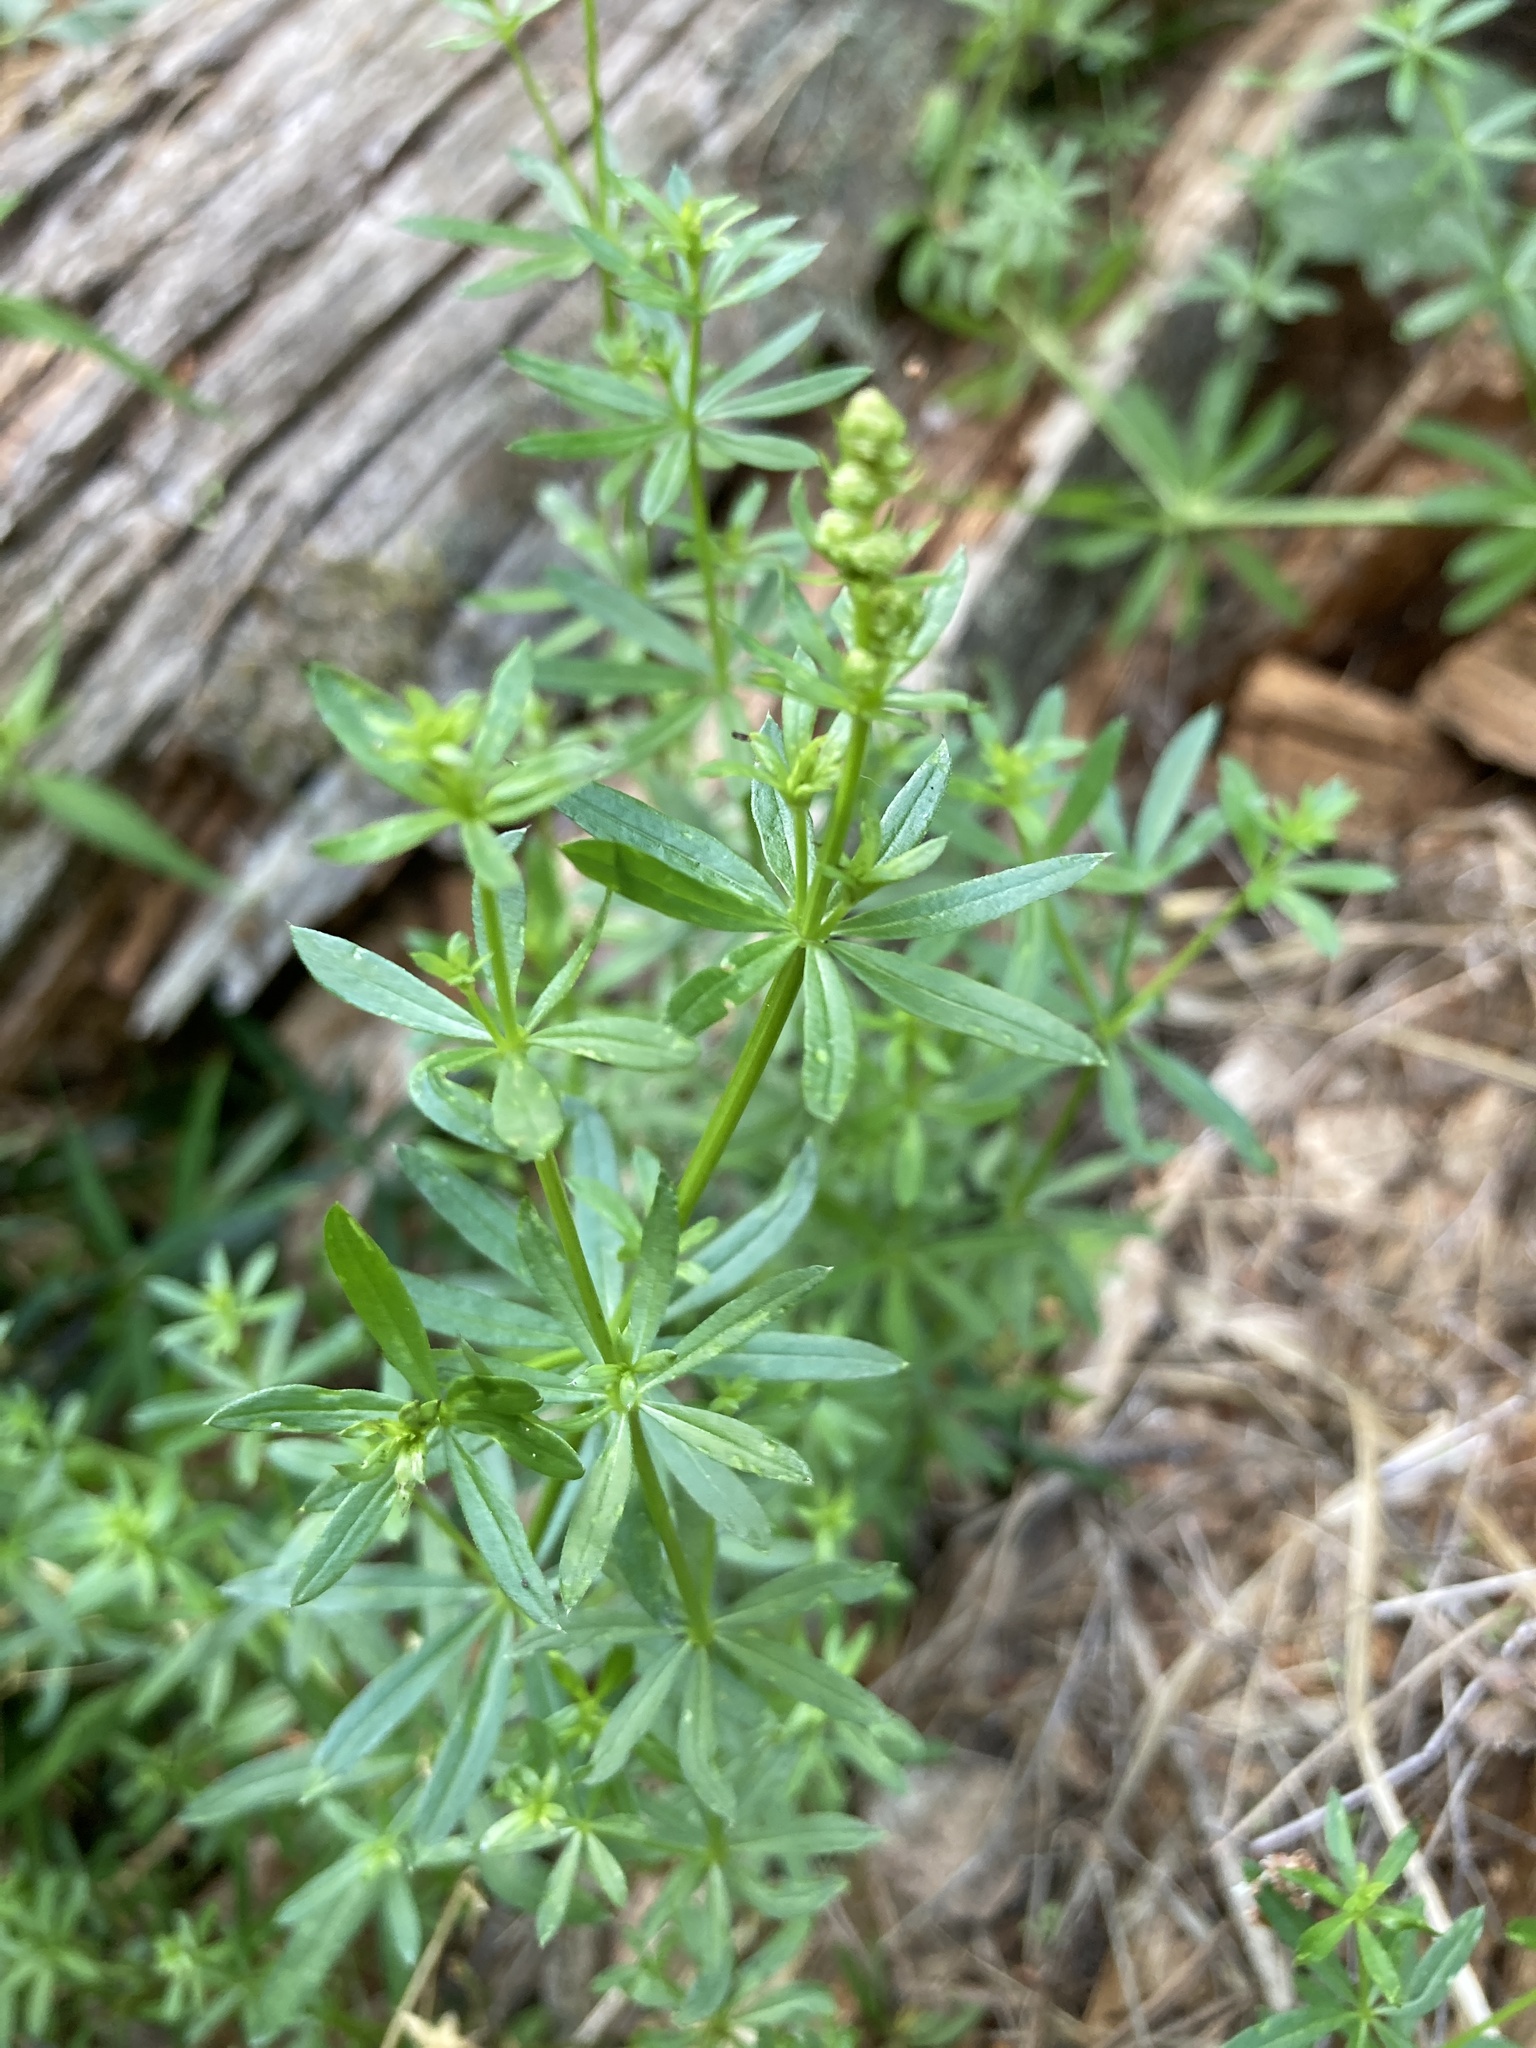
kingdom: Plantae
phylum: Tracheophyta
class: Magnoliopsida
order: Gentianales
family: Rubiaceae
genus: Galium
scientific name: Galium mollugo
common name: Hedge bedstraw
